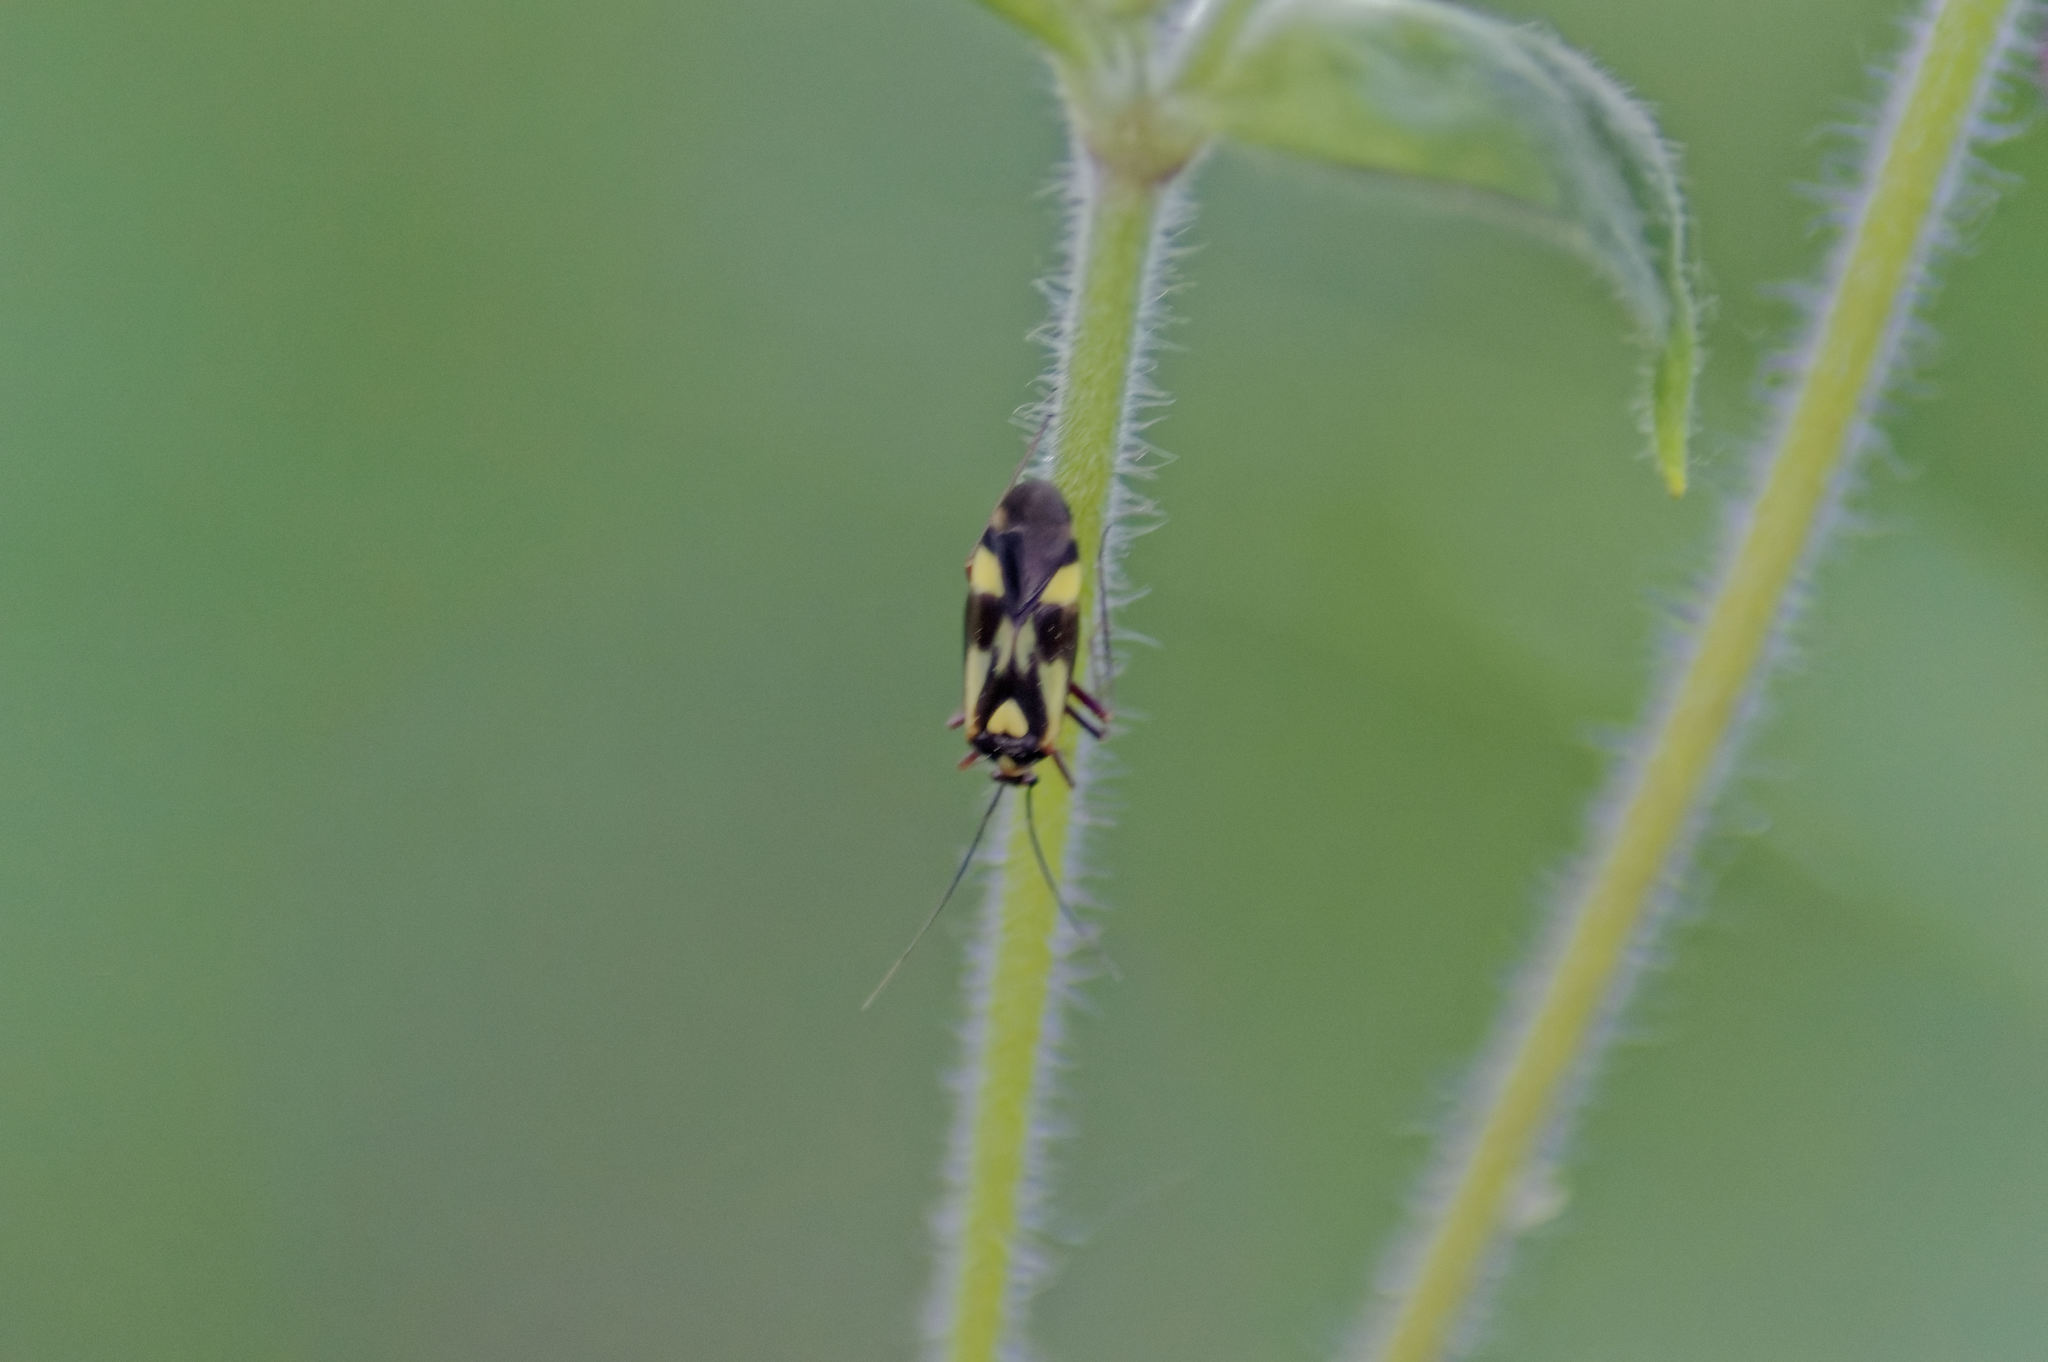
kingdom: Animalia
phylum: Arthropoda
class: Insecta
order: Hemiptera
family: Miridae
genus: Grypocoris
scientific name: Grypocoris sexguttatus
